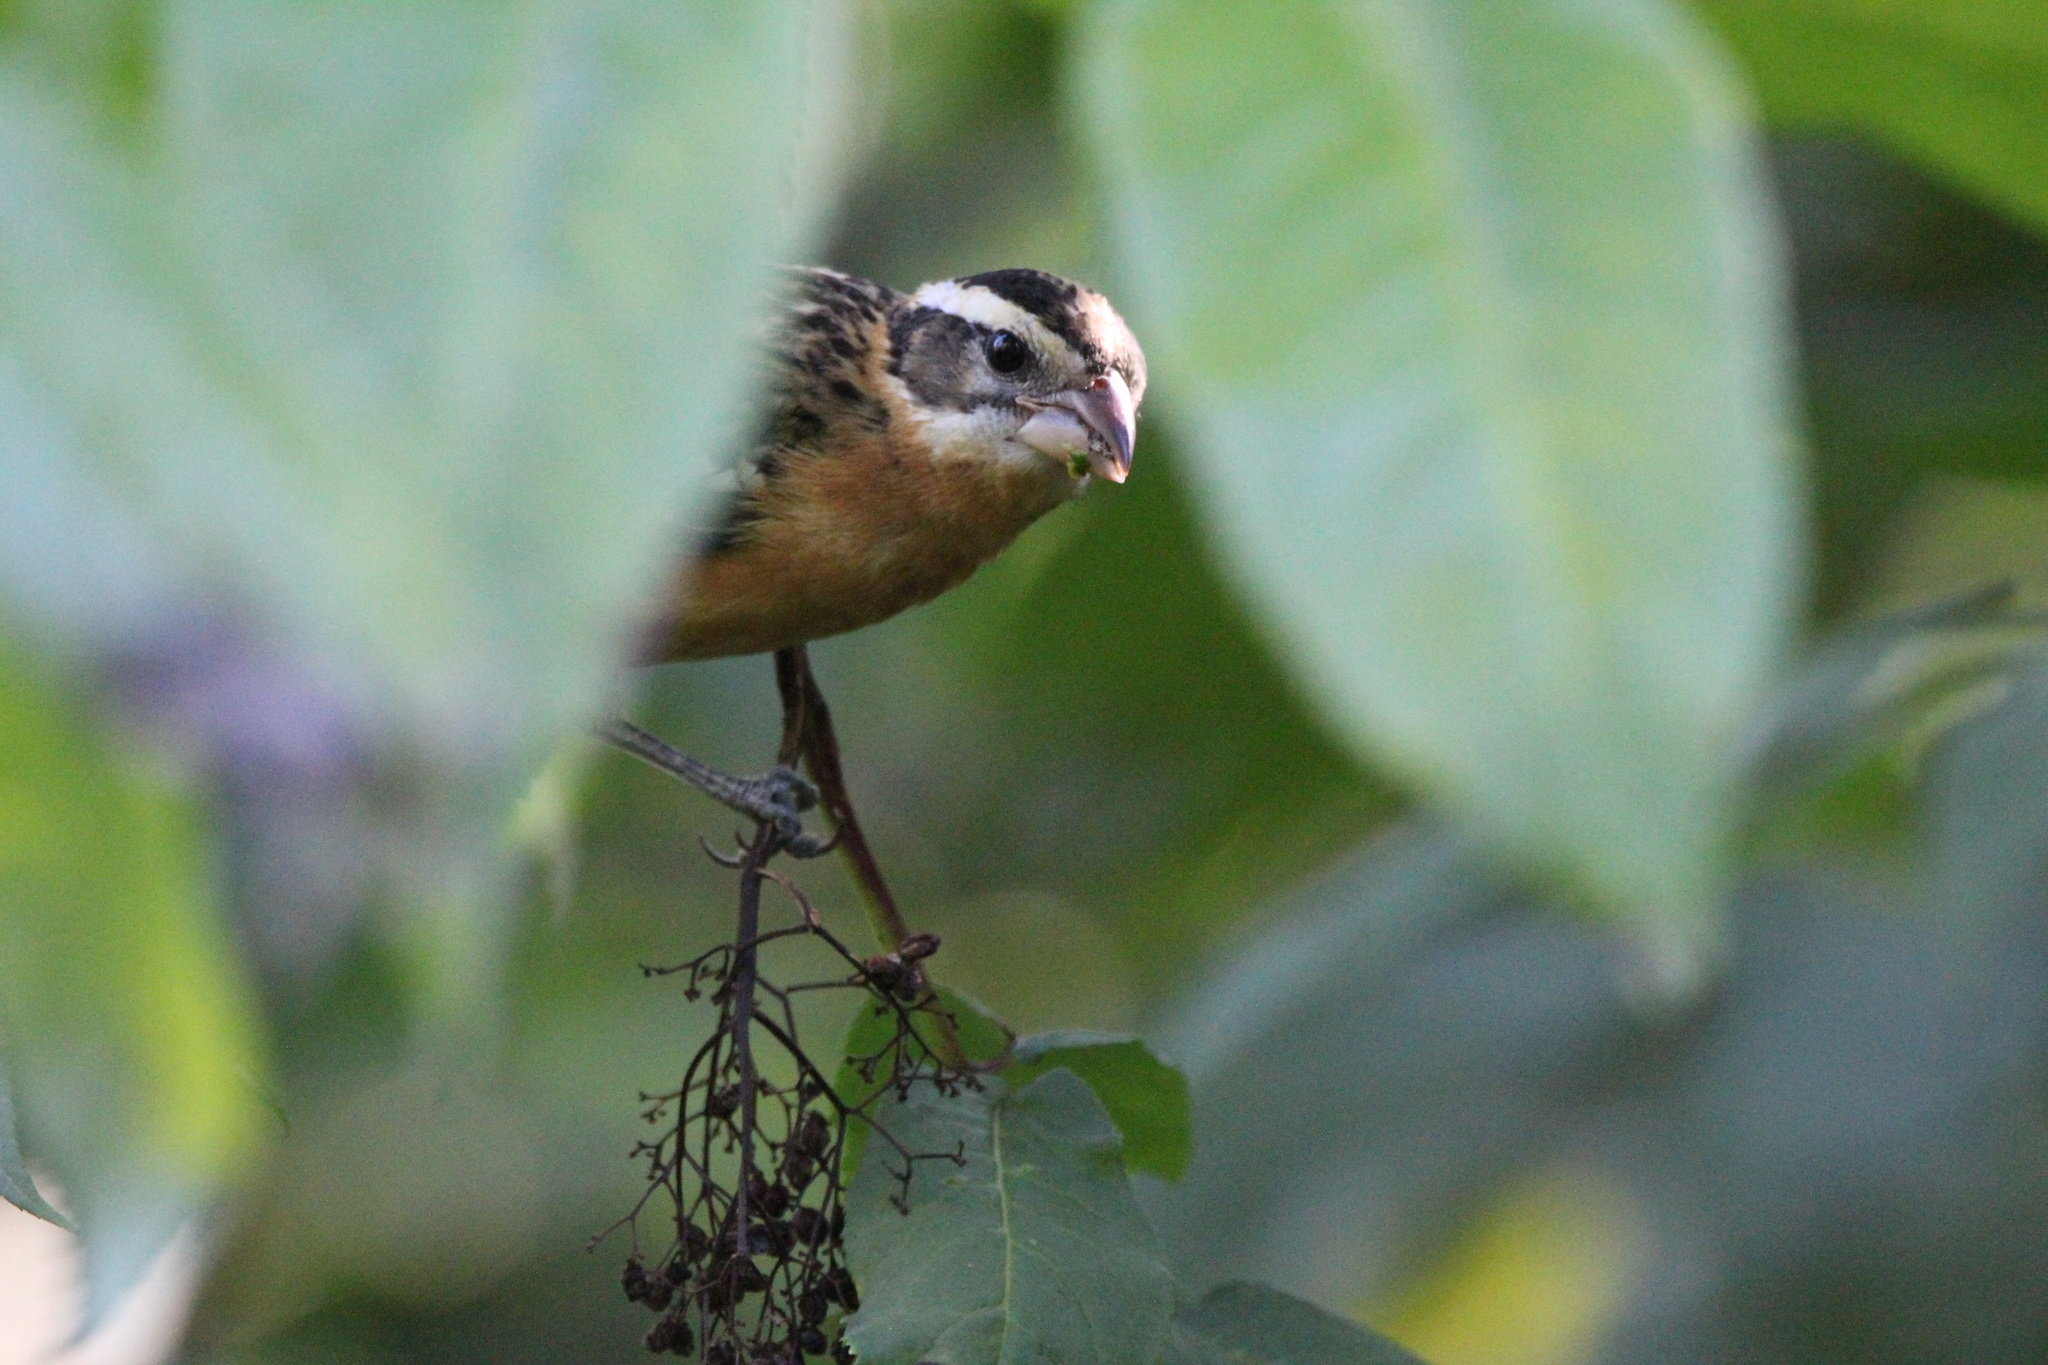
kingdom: Animalia
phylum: Chordata
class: Aves
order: Passeriformes
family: Cardinalidae
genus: Pheucticus
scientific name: Pheucticus melanocephalus
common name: Black-headed grosbeak
